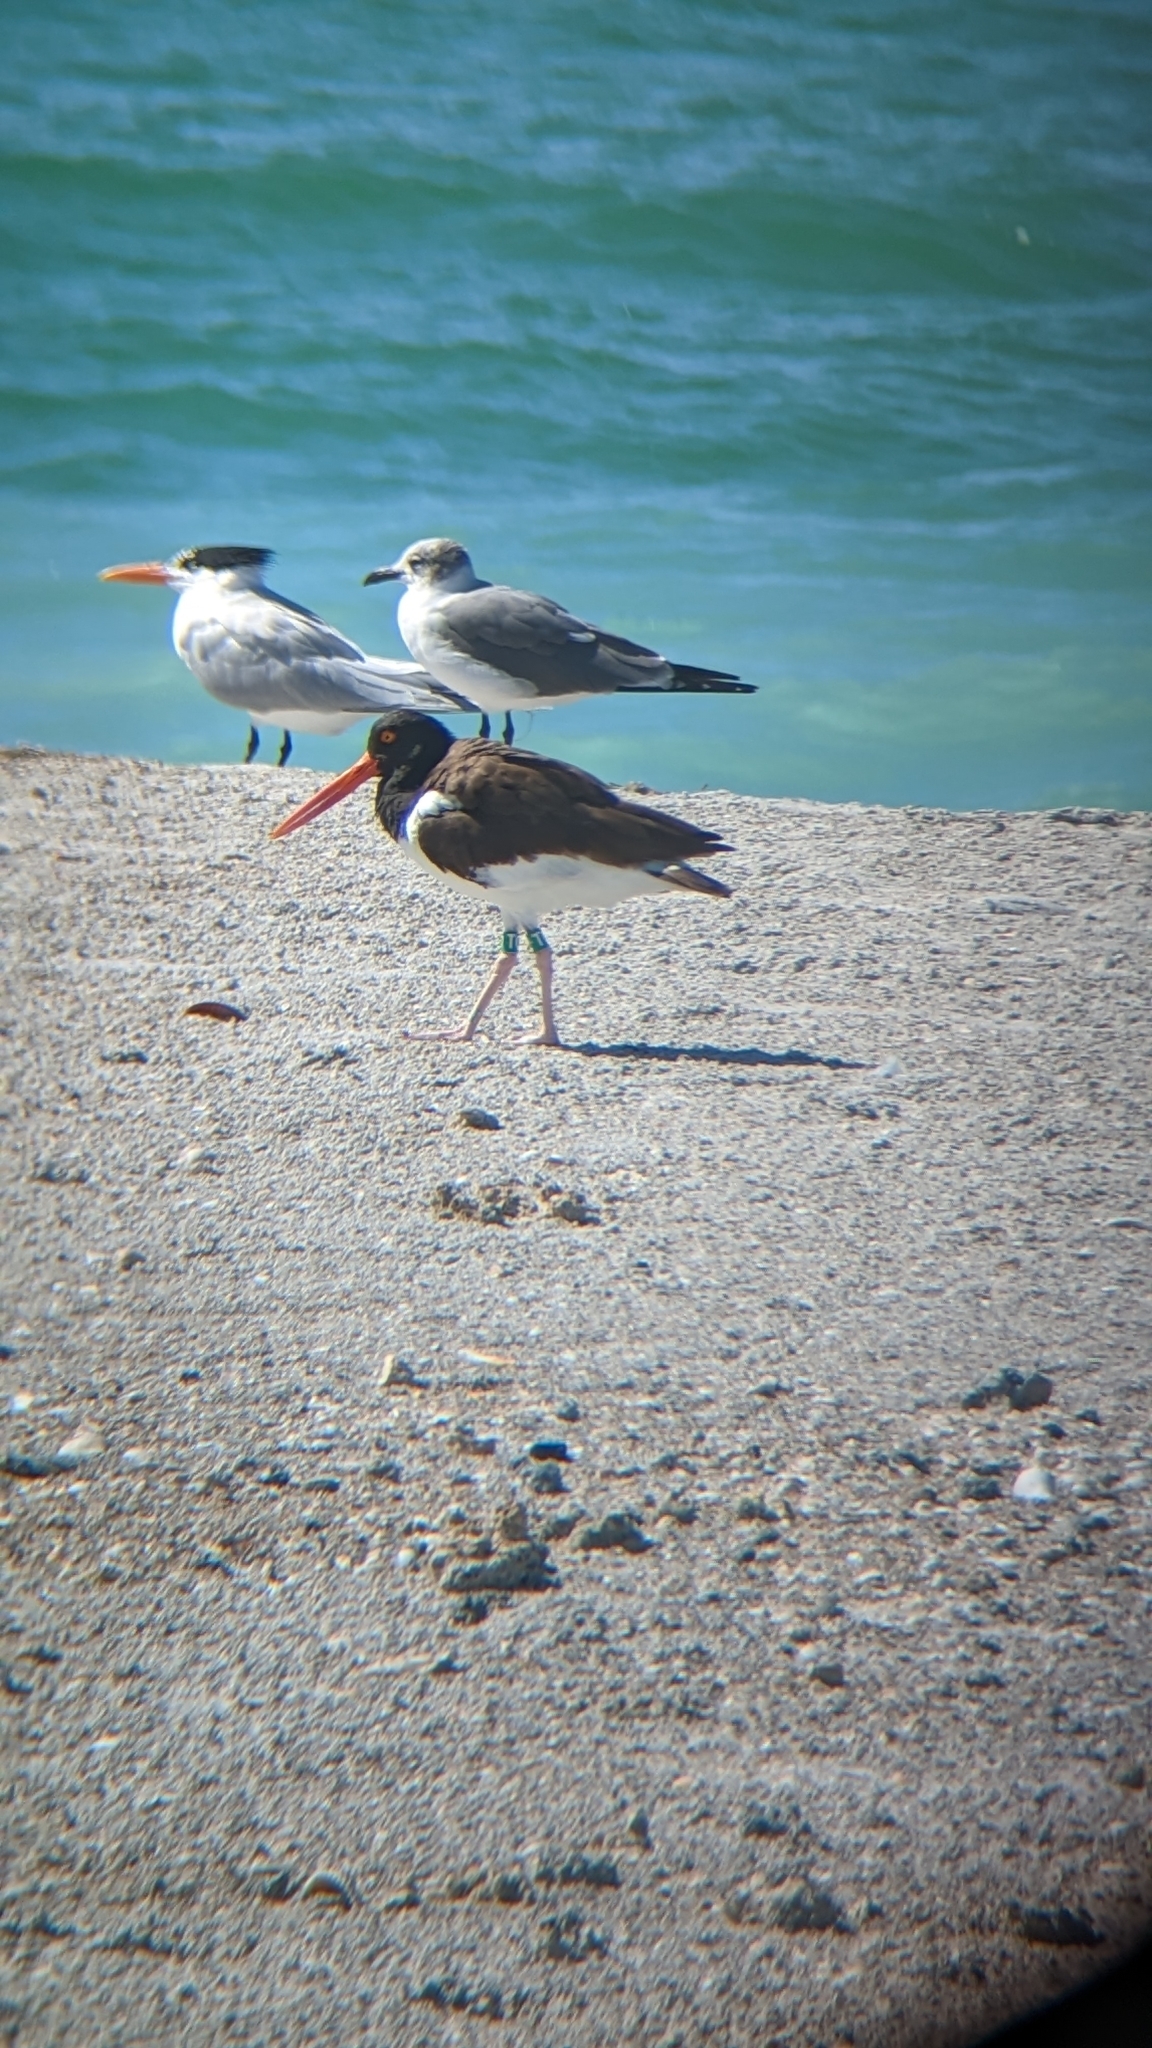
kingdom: Animalia
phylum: Chordata
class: Aves
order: Charadriiformes
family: Haematopodidae
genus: Haematopus
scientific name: Haematopus palliatus
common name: American oystercatcher
